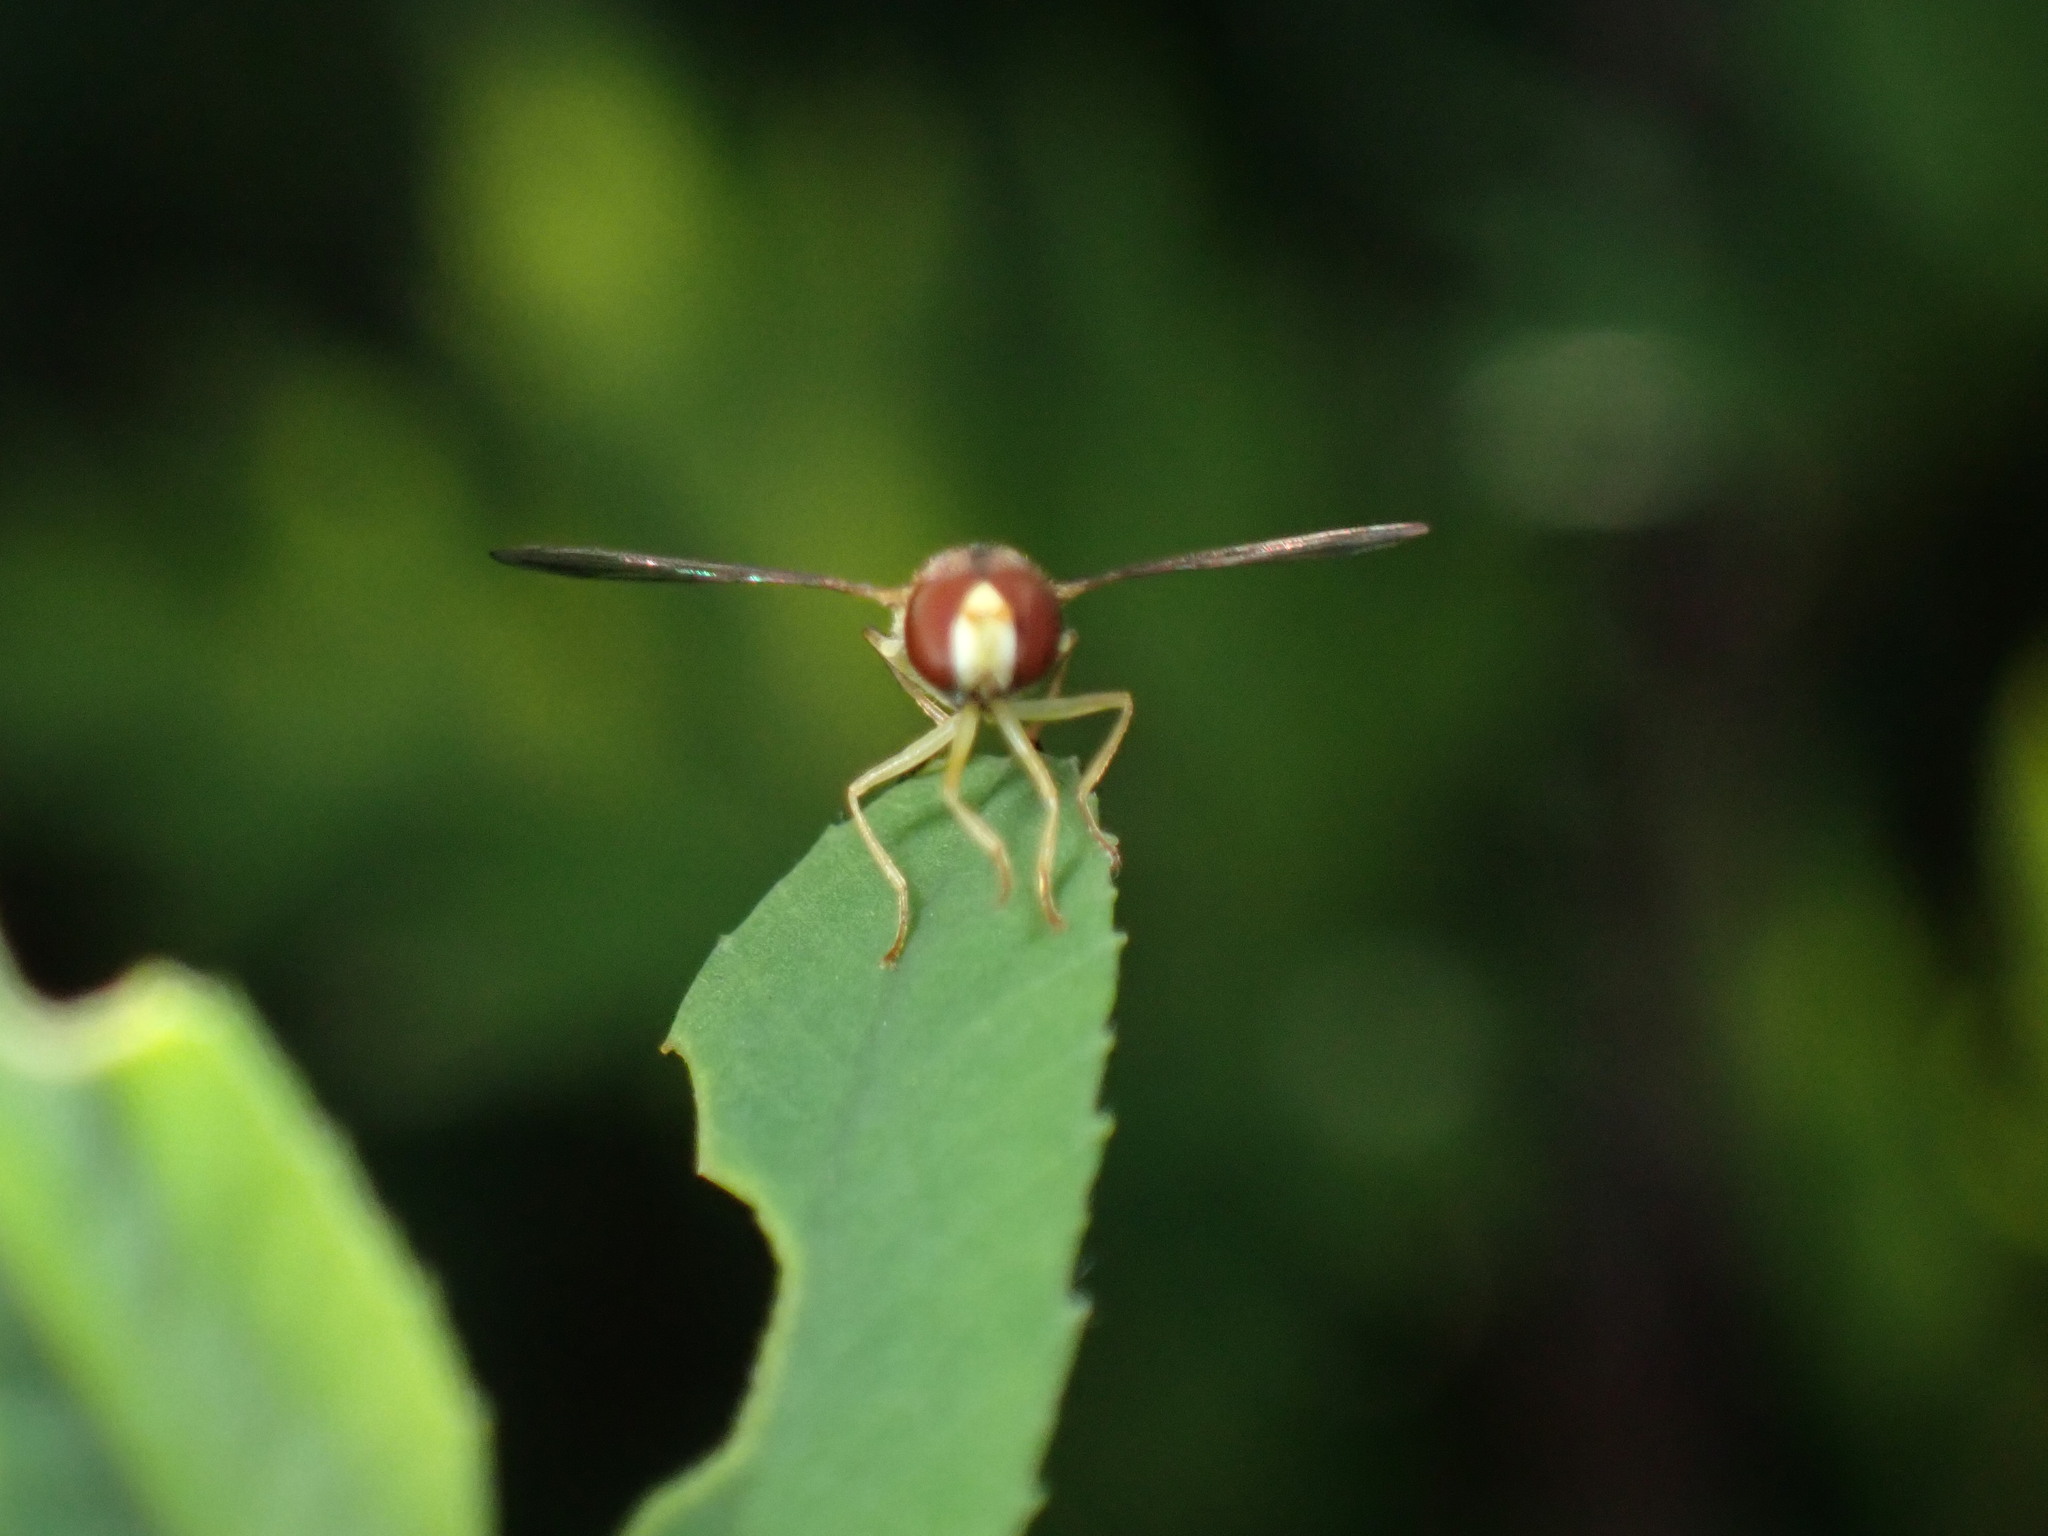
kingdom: Animalia
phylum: Arthropoda
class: Insecta
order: Diptera
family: Syrphidae
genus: Toxomerus
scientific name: Toxomerus marginatus
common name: Syrphid fly
